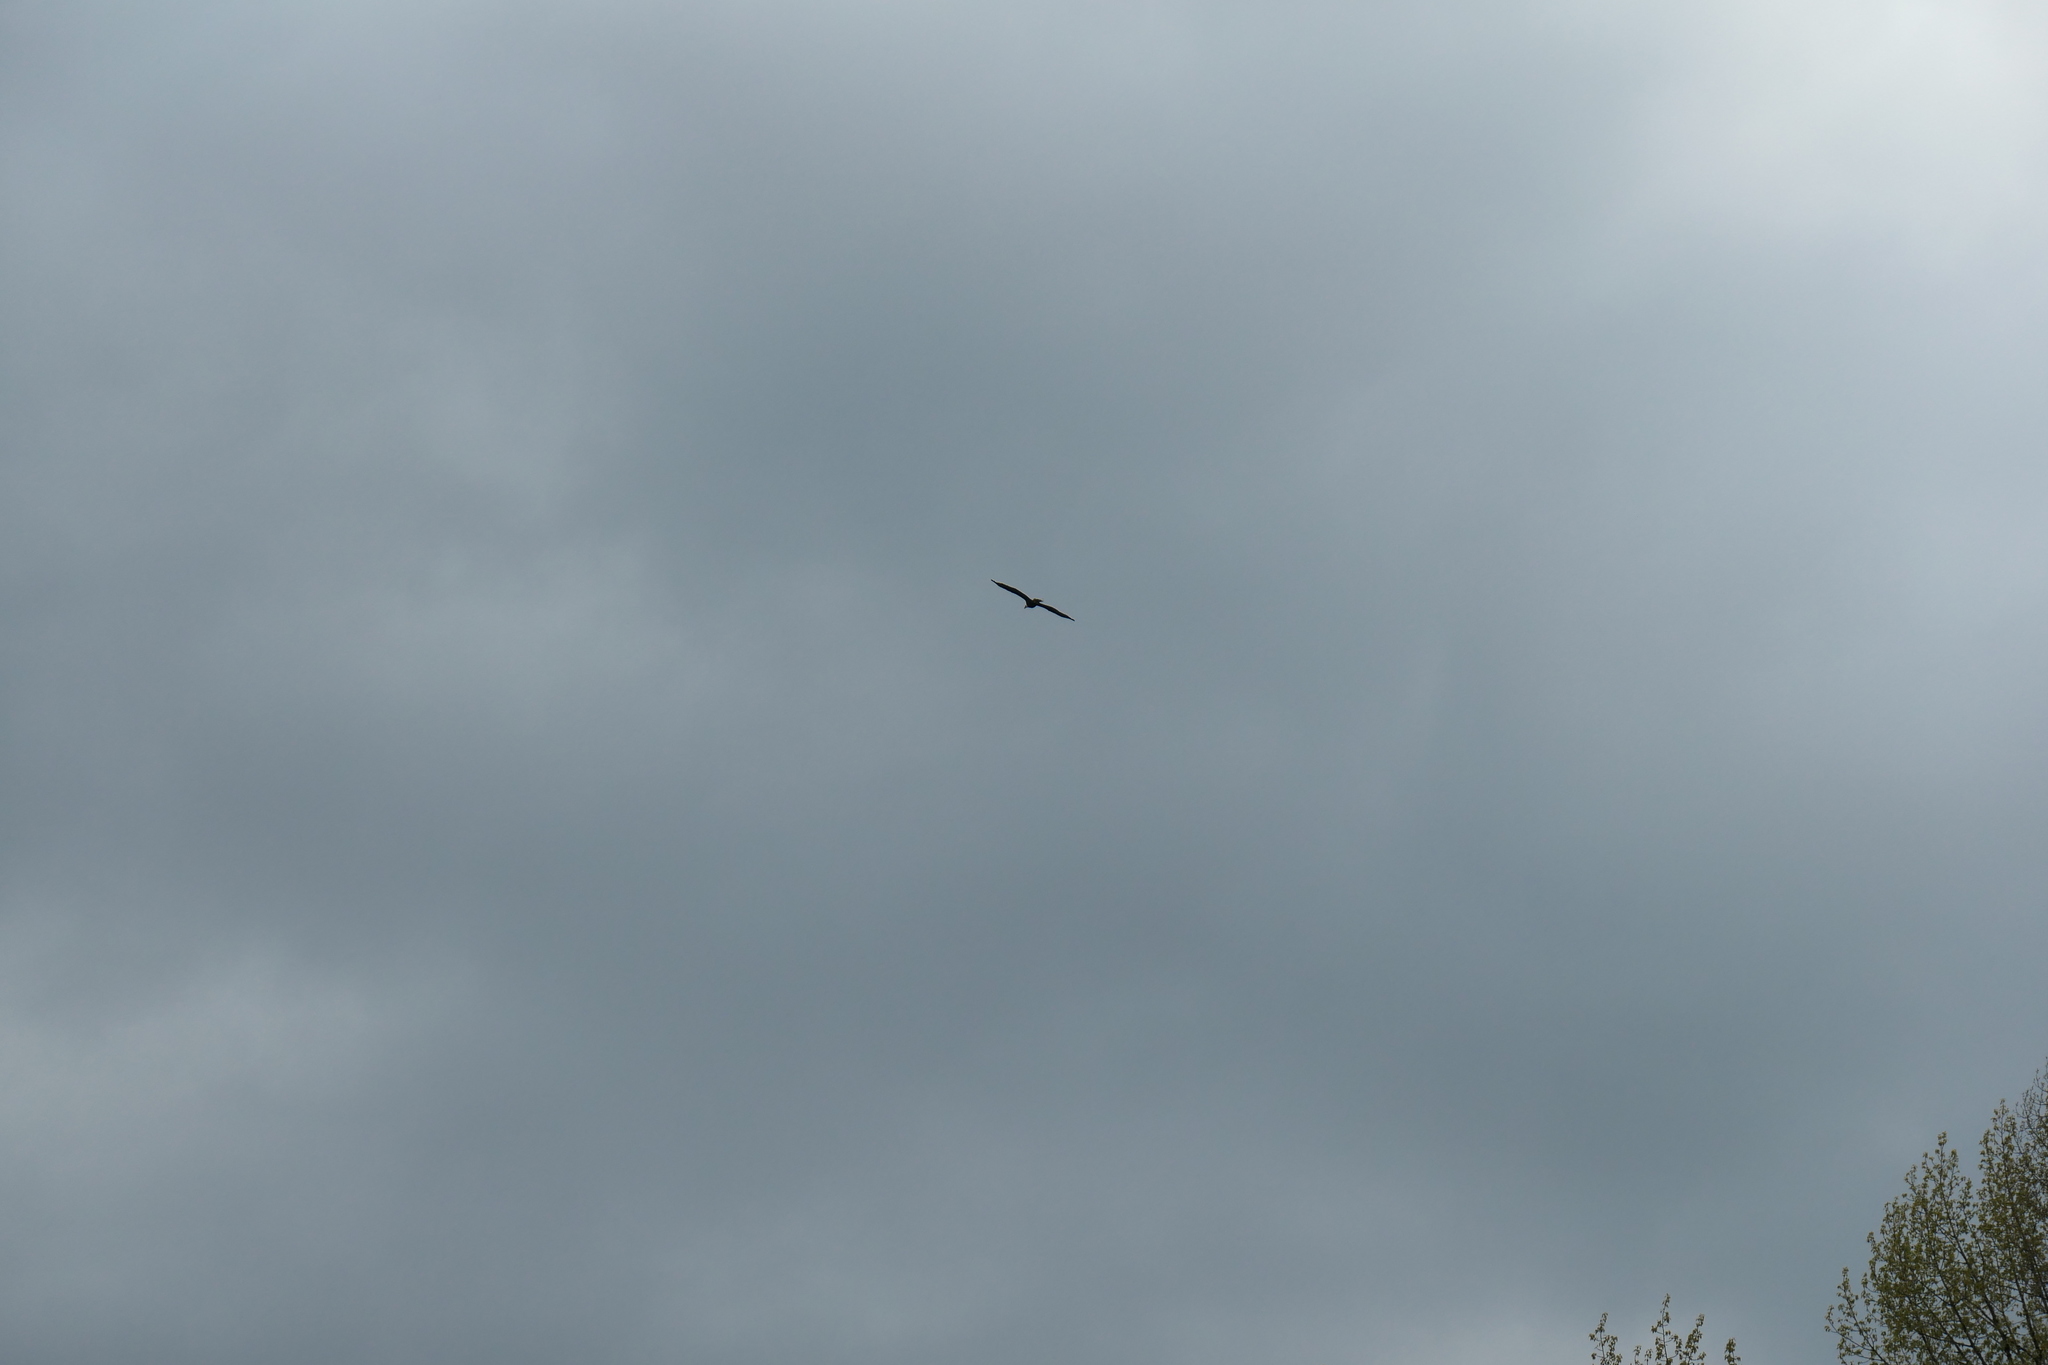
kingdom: Animalia
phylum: Chordata
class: Aves
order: Accipitriformes
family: Accipitridae
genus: Haliaeetus
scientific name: Haliaeetus leucocephalus
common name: Bald eagle
